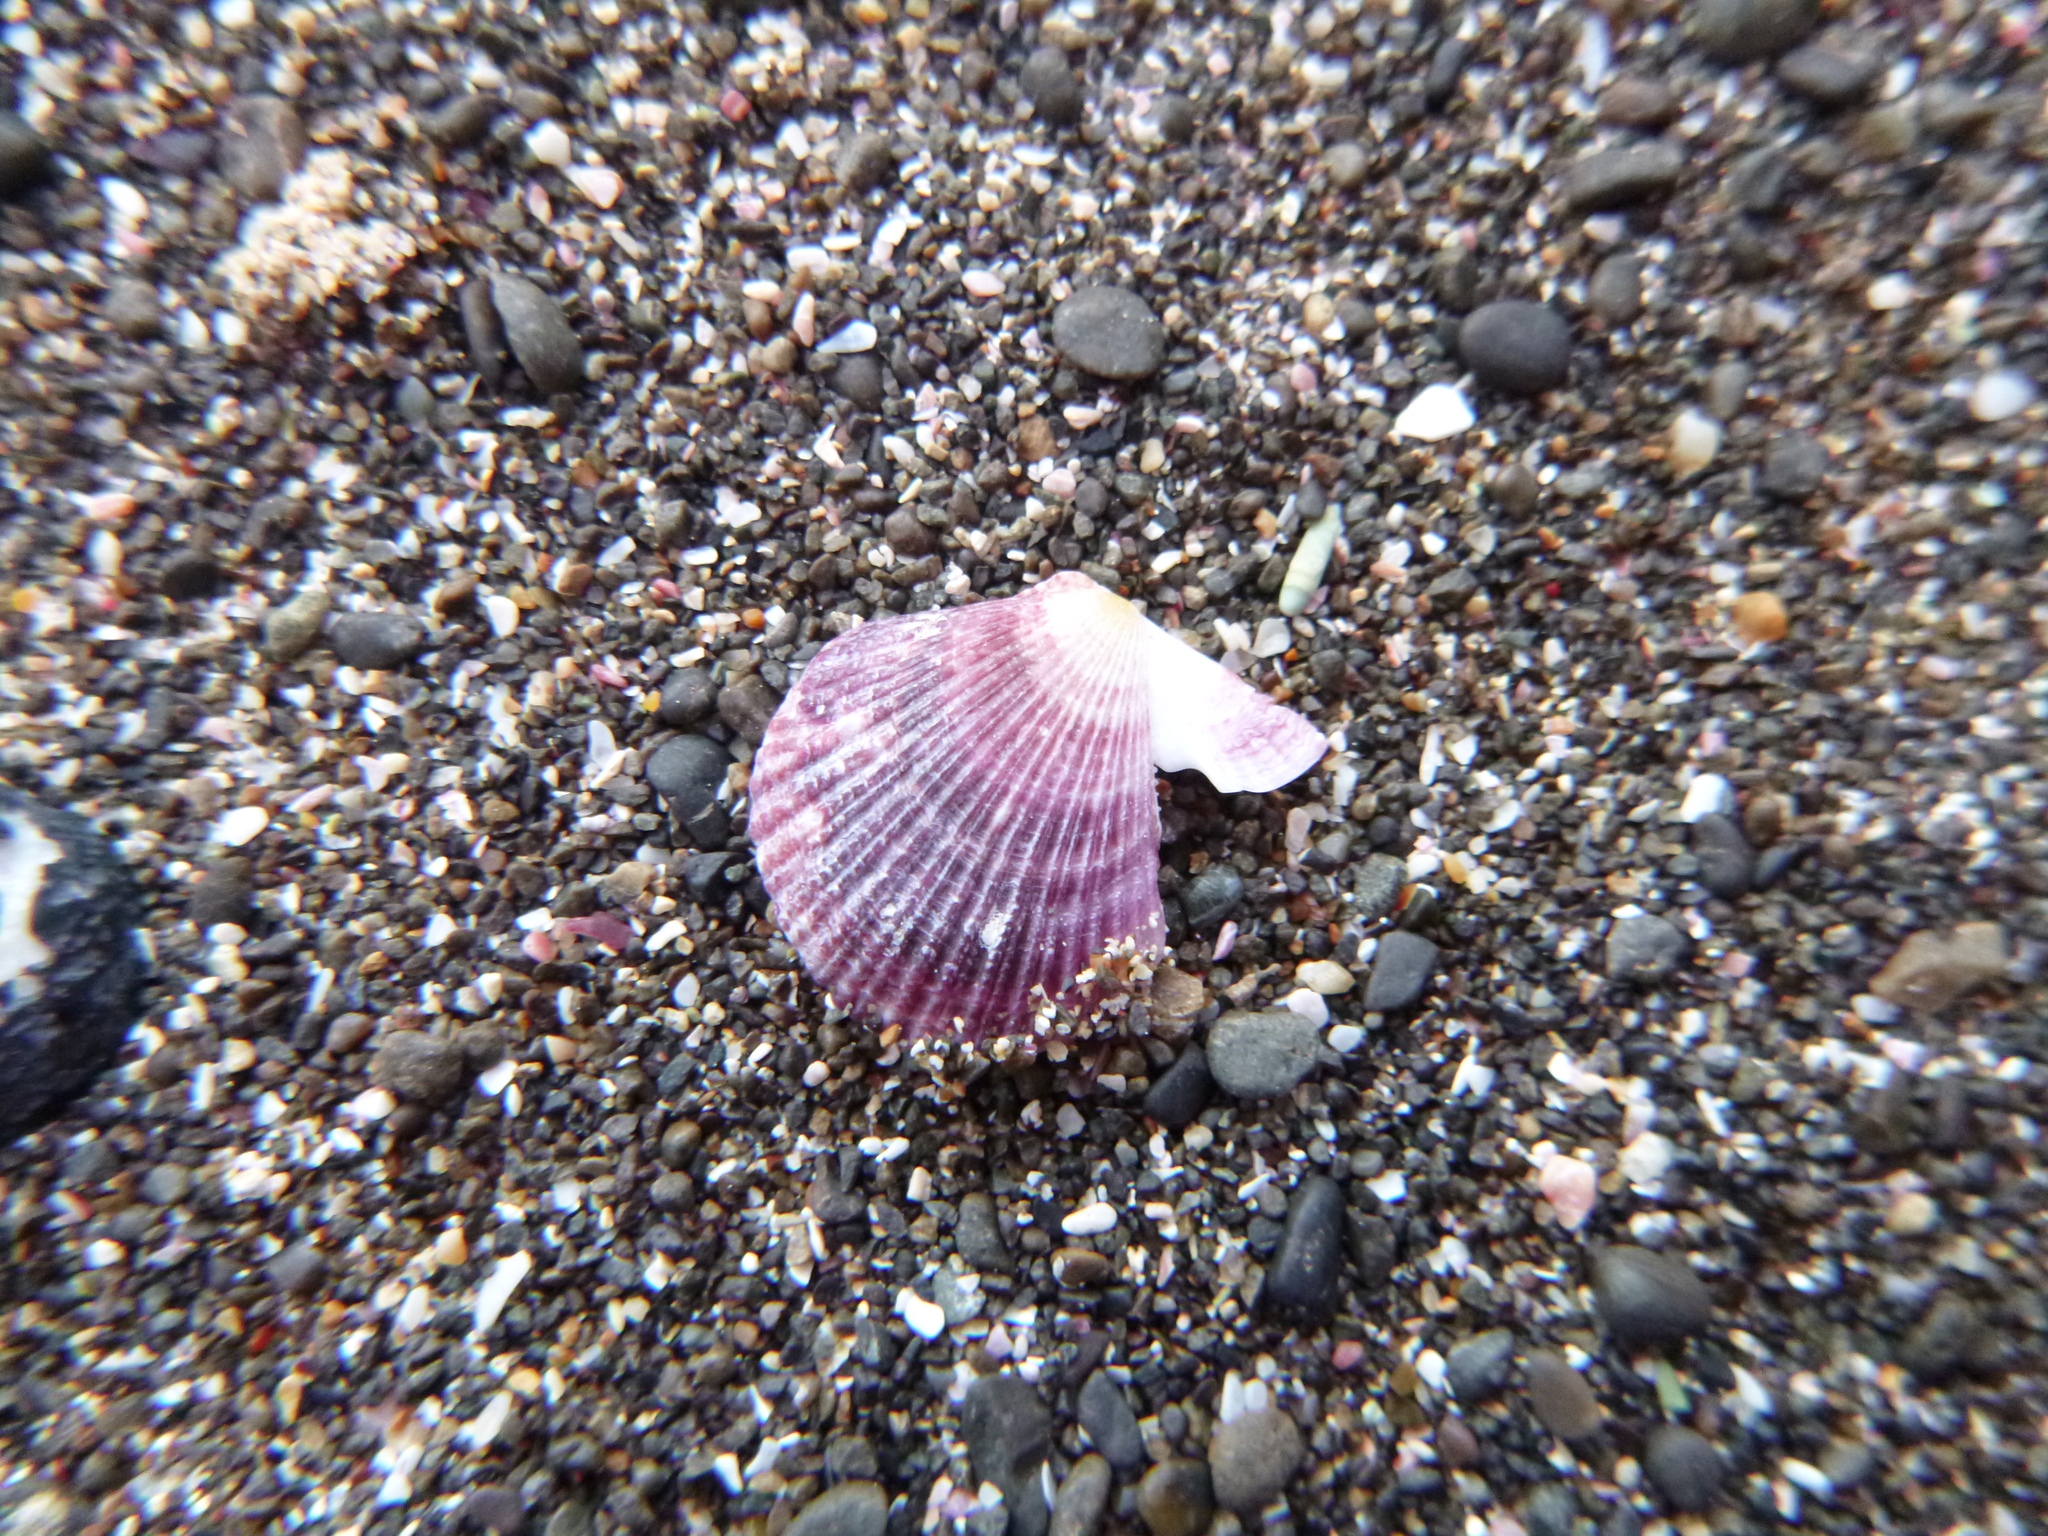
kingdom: Animalia
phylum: Mollusca
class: Bivalvia
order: Pectinida
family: Pectinidae
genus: Talochlamys
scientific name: Talochlamys zelandiae
